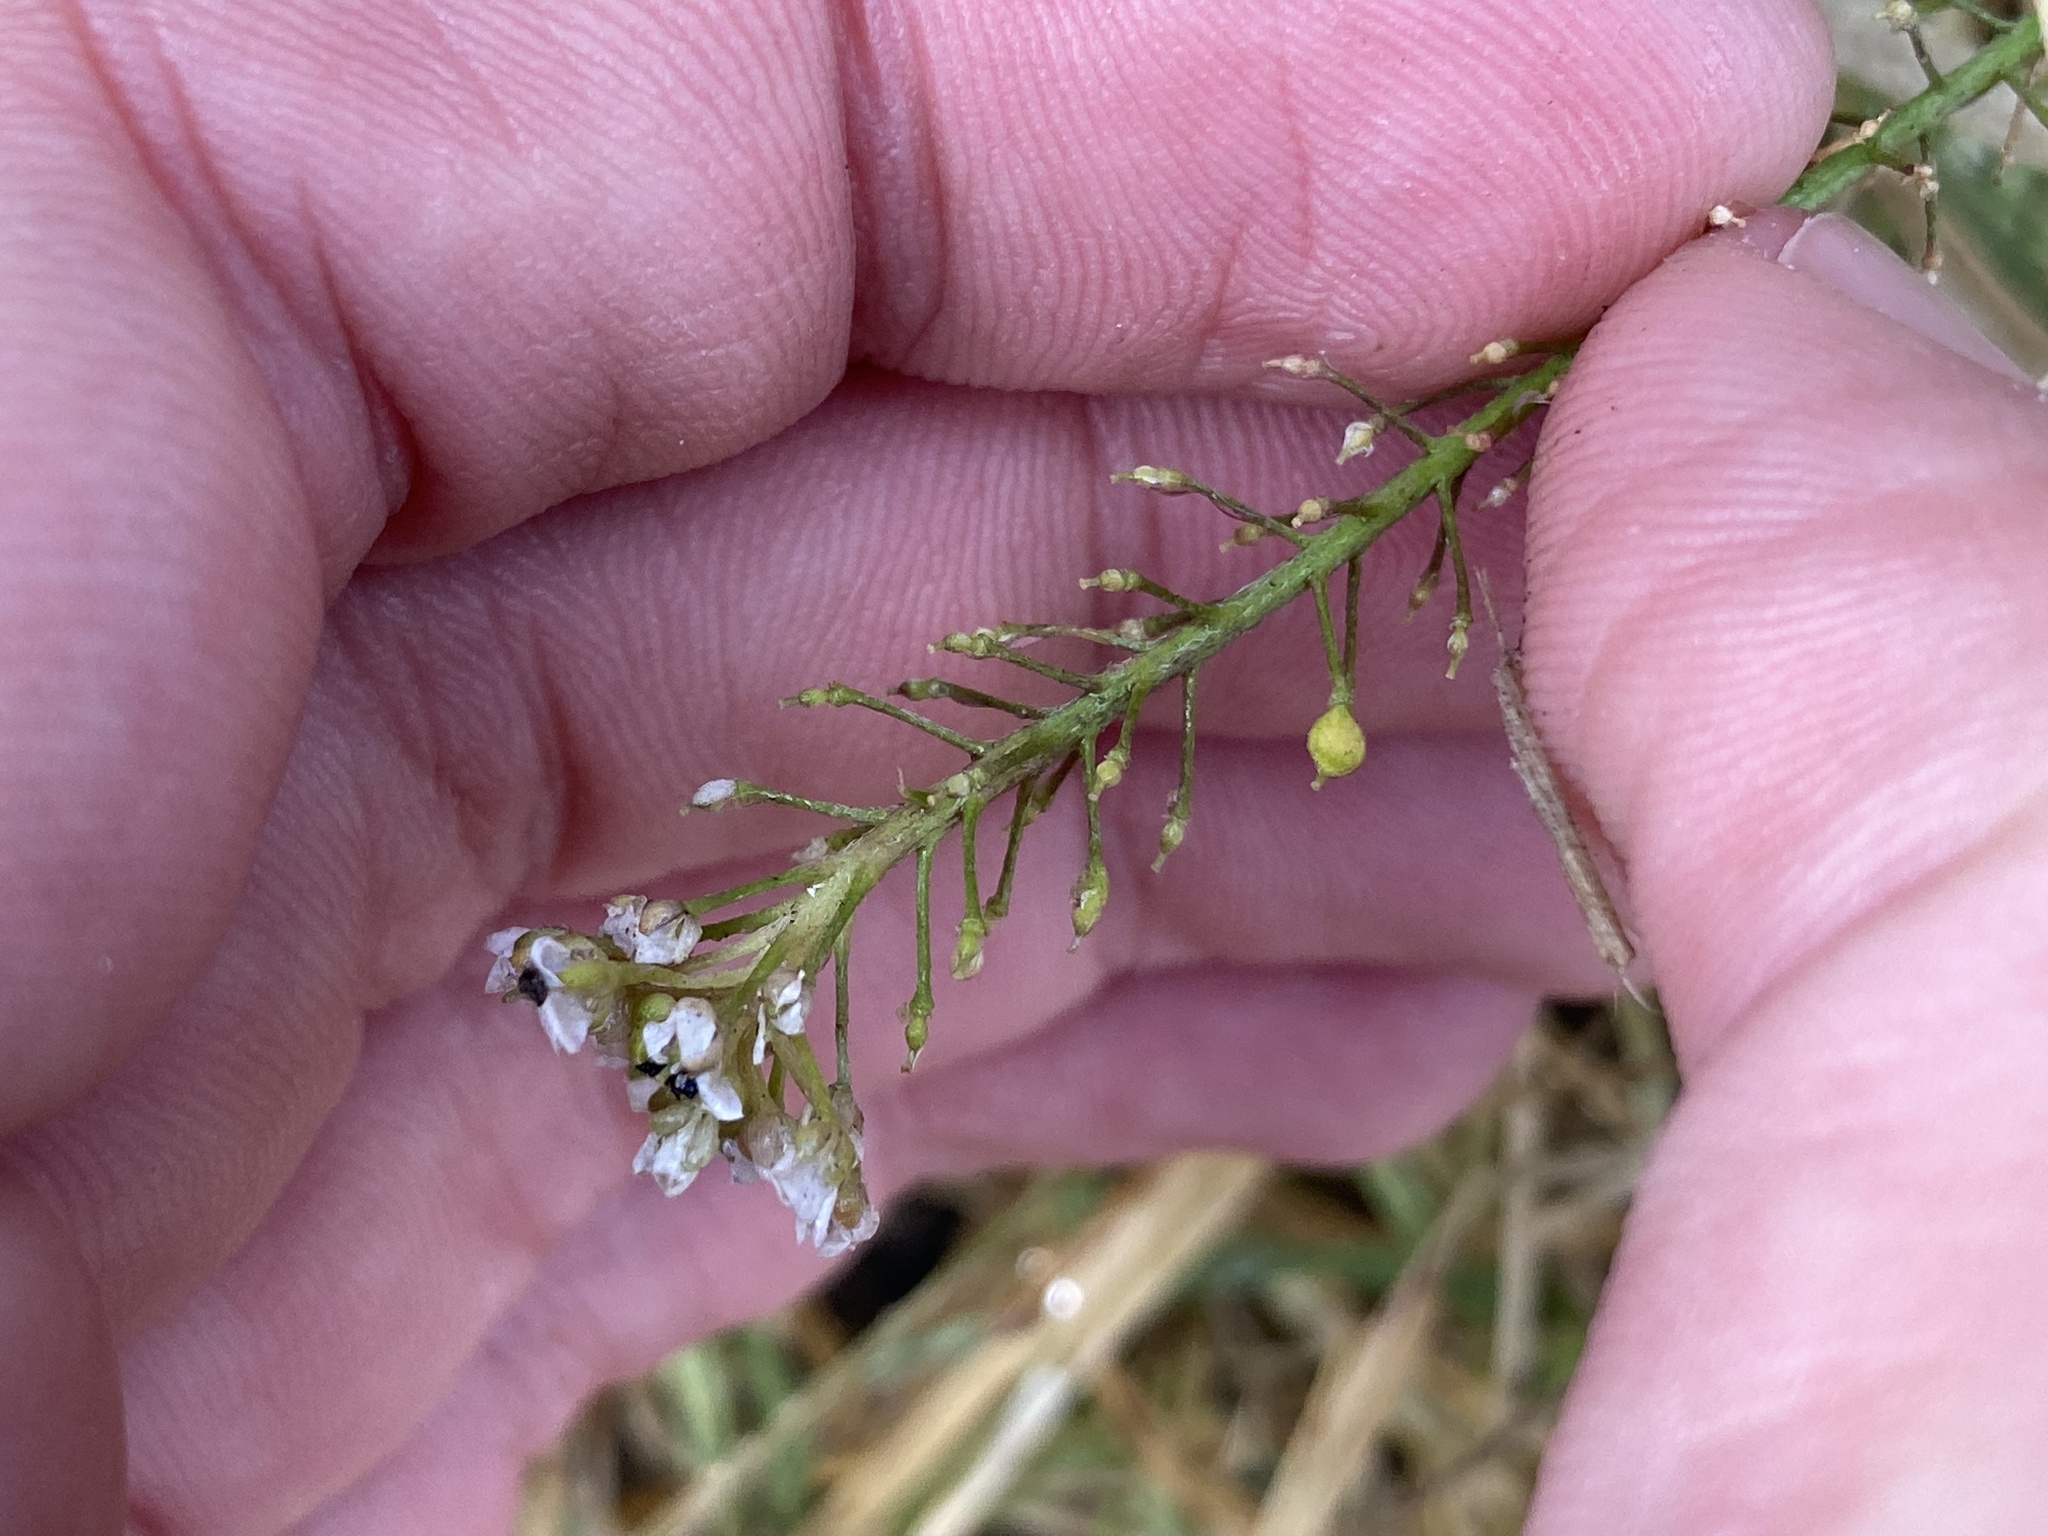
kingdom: Plantae
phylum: Tracheophyta
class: Magnoliopsida
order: Brassicales
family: Brassicaceae
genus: Lobularia
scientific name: Lobularia maritima
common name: Sweet alison
